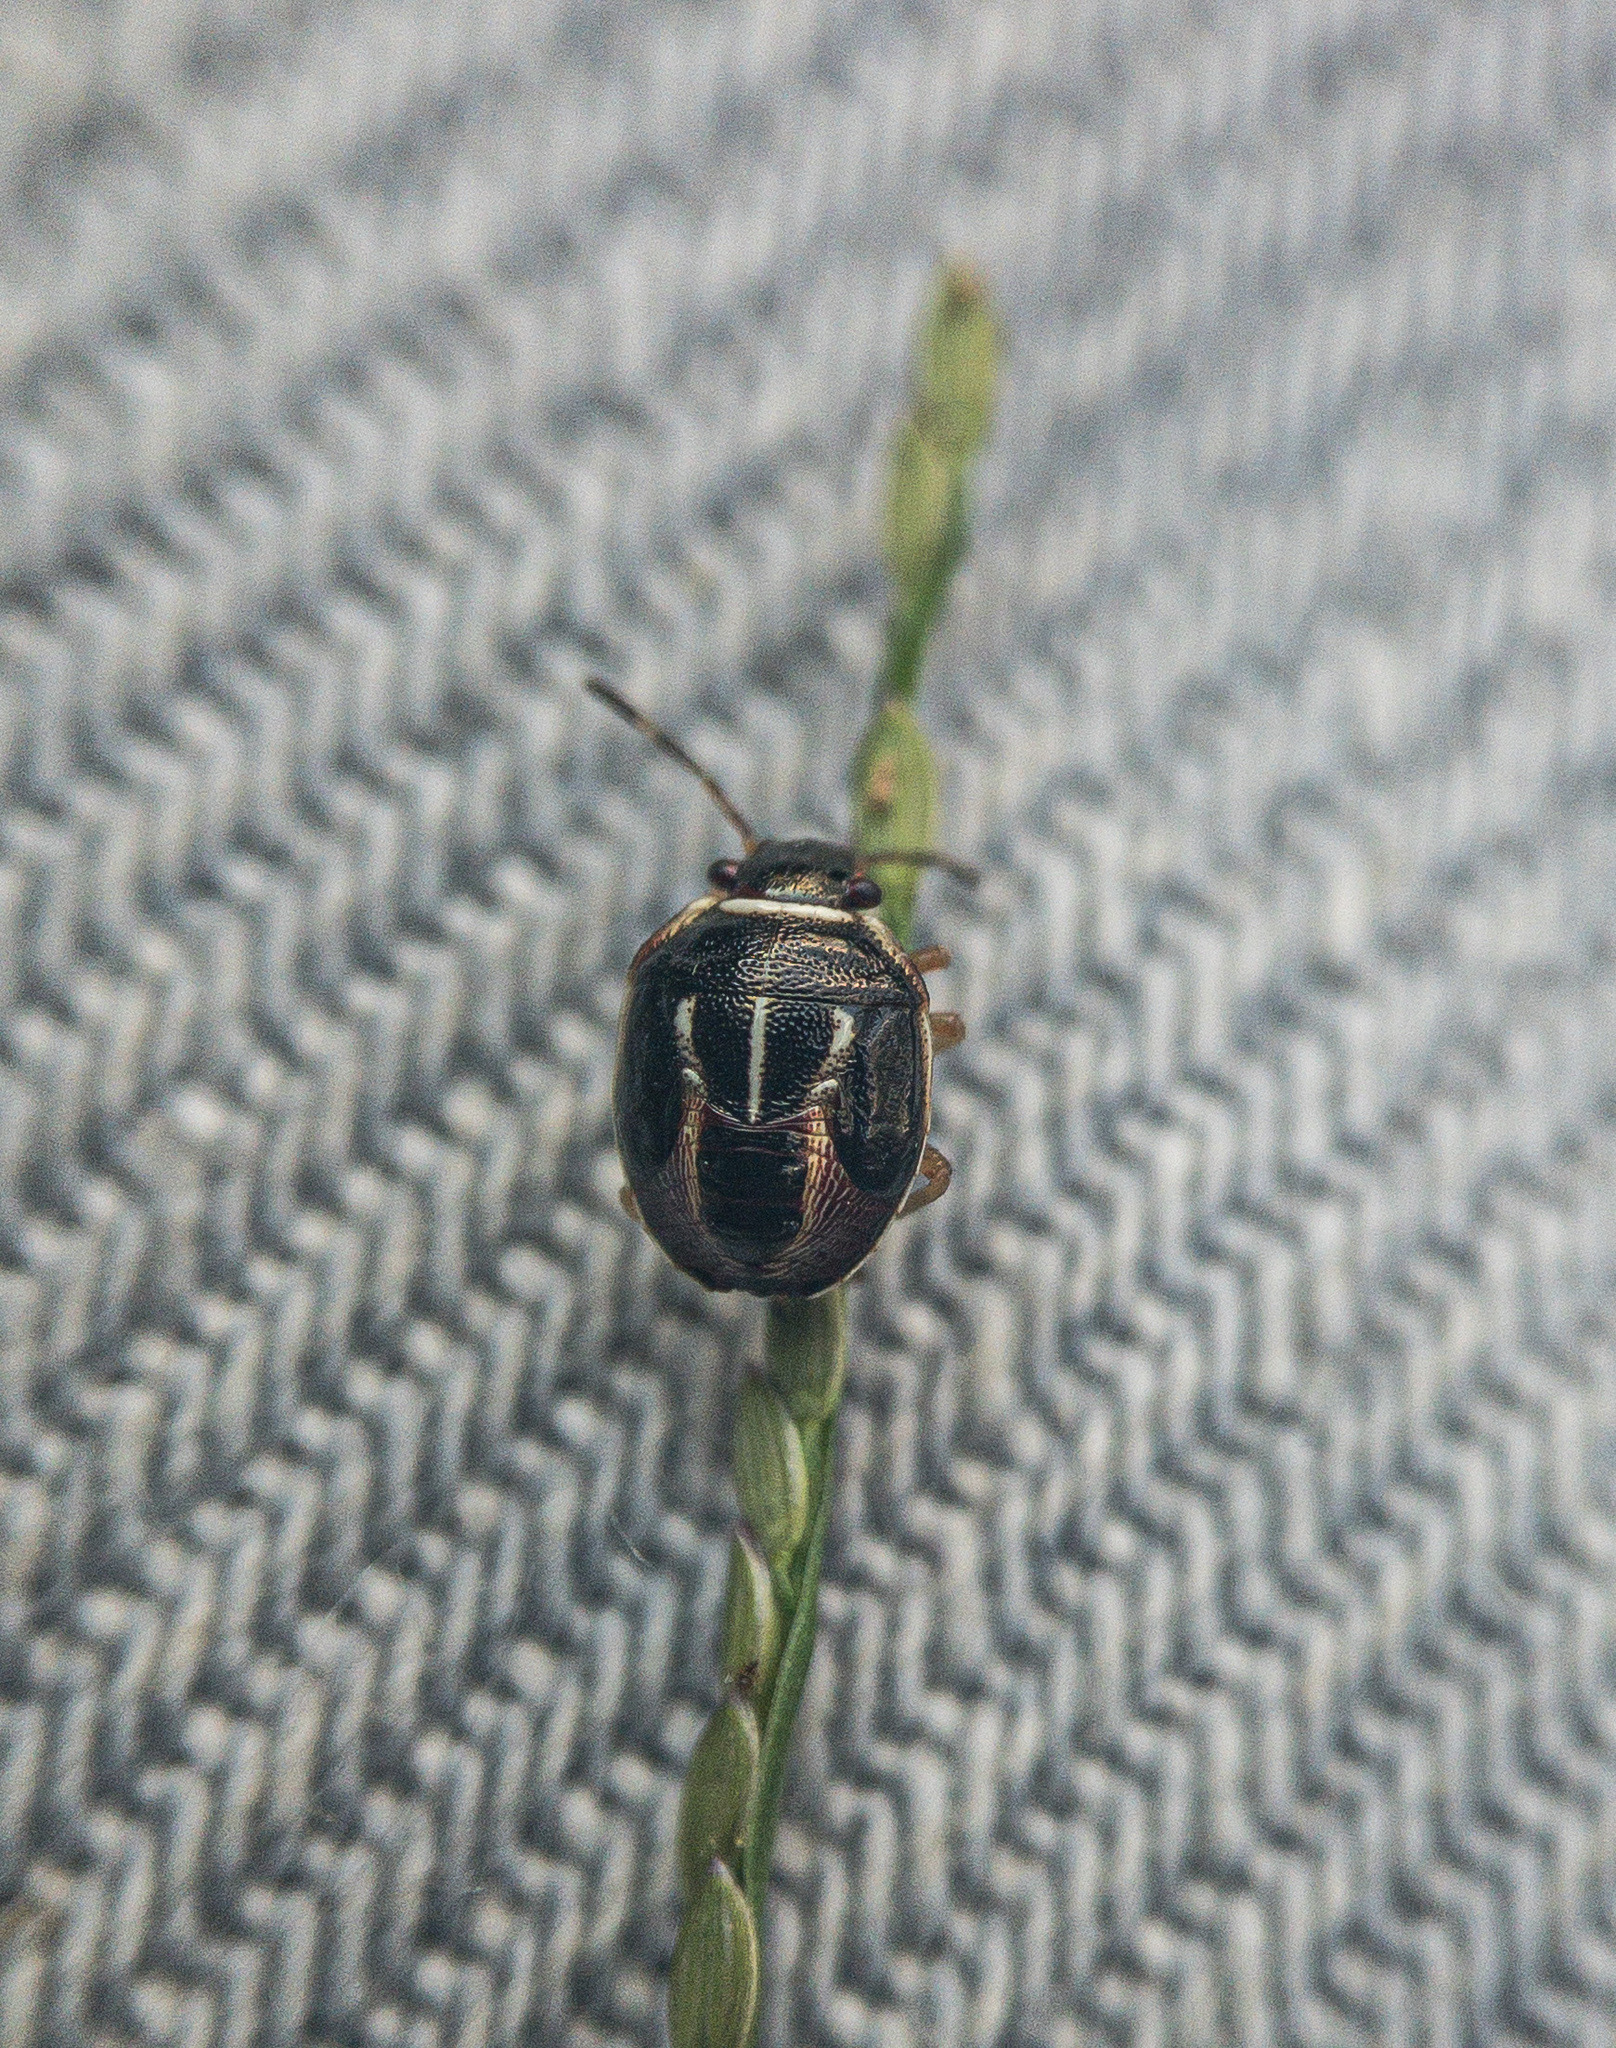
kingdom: Animalia
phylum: Arthropoda
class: Insecta
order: Hemiptera
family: Pentatomidae
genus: Mormidea
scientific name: Mormidea lugens
